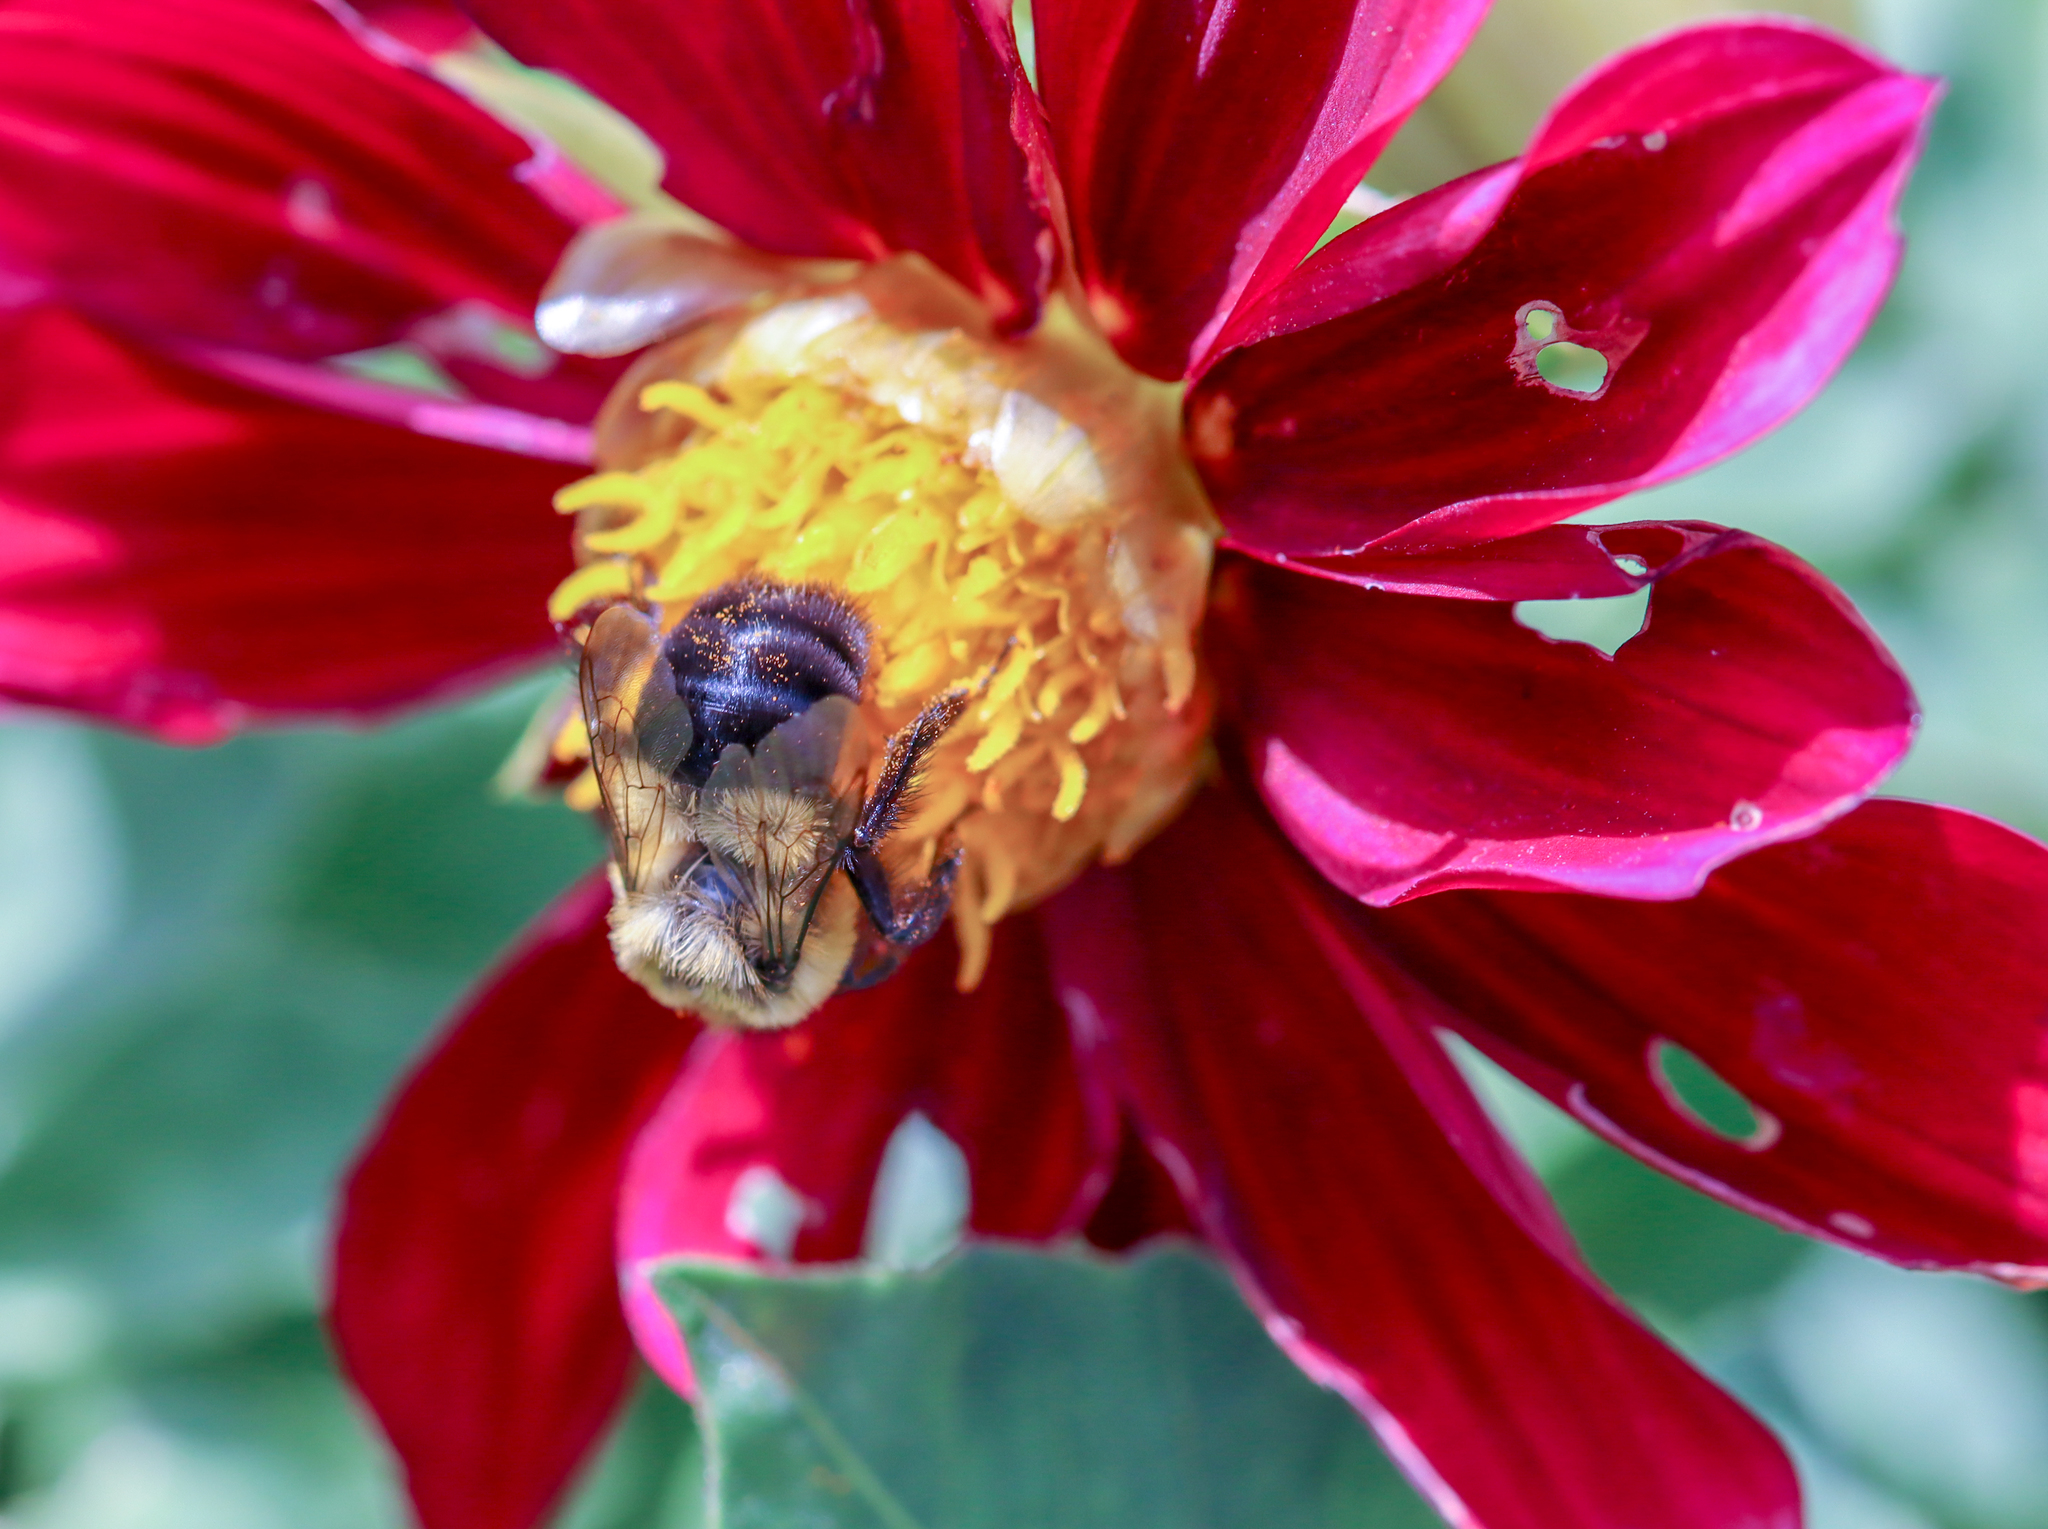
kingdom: Animalia
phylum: Arthropoda
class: Insecta
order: Hymenoptera
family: Apidae
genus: Bombus
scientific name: Bombus impatiens
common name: Common eastern bumble bee
